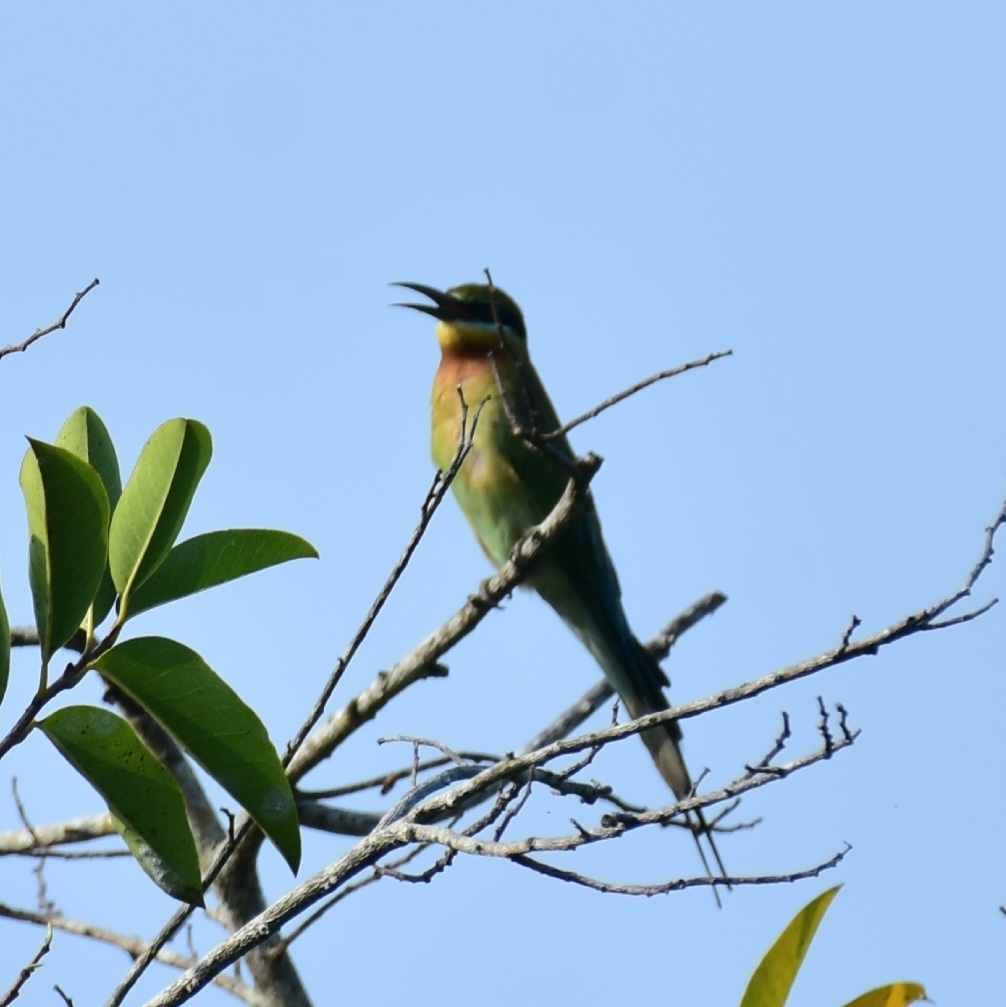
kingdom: Animalia
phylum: Chordata
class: Aves
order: Coraciiformes
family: Meropidae
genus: Merops
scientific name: Merops philippinus
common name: Blue-tailed bee-eater
